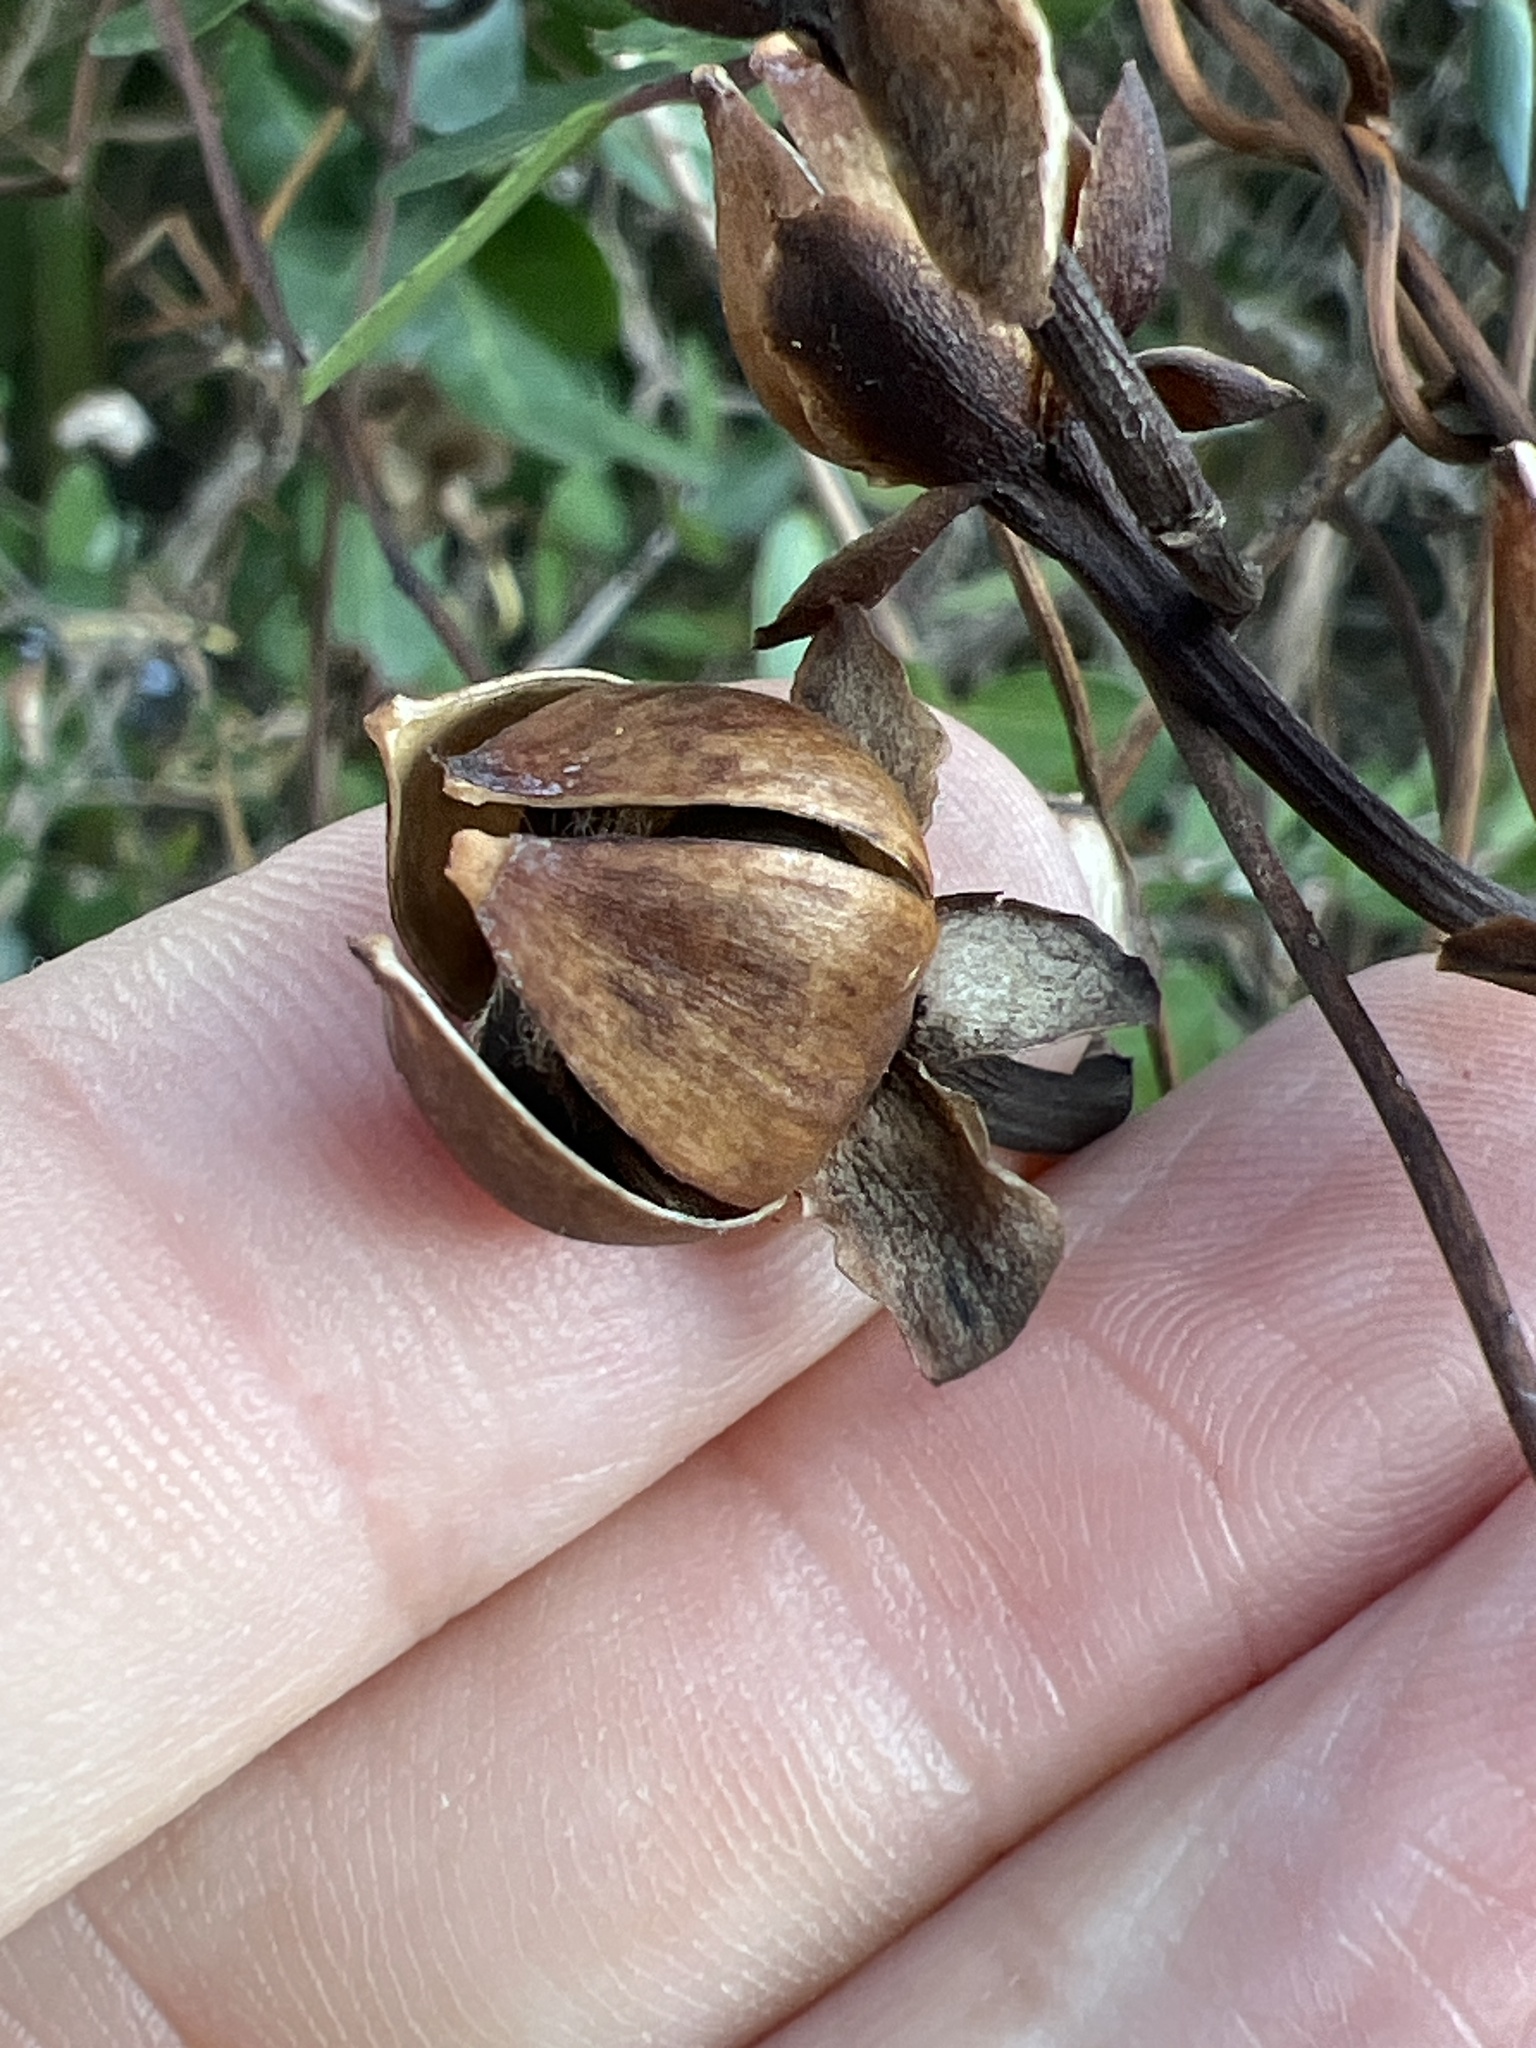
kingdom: Plantae
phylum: Tracheophyta
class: Magnoliopsida
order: Solanales
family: Convolvulaceae
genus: Ipomoea
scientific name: Ipomoea sagittata
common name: Saltmarsh morning glory
